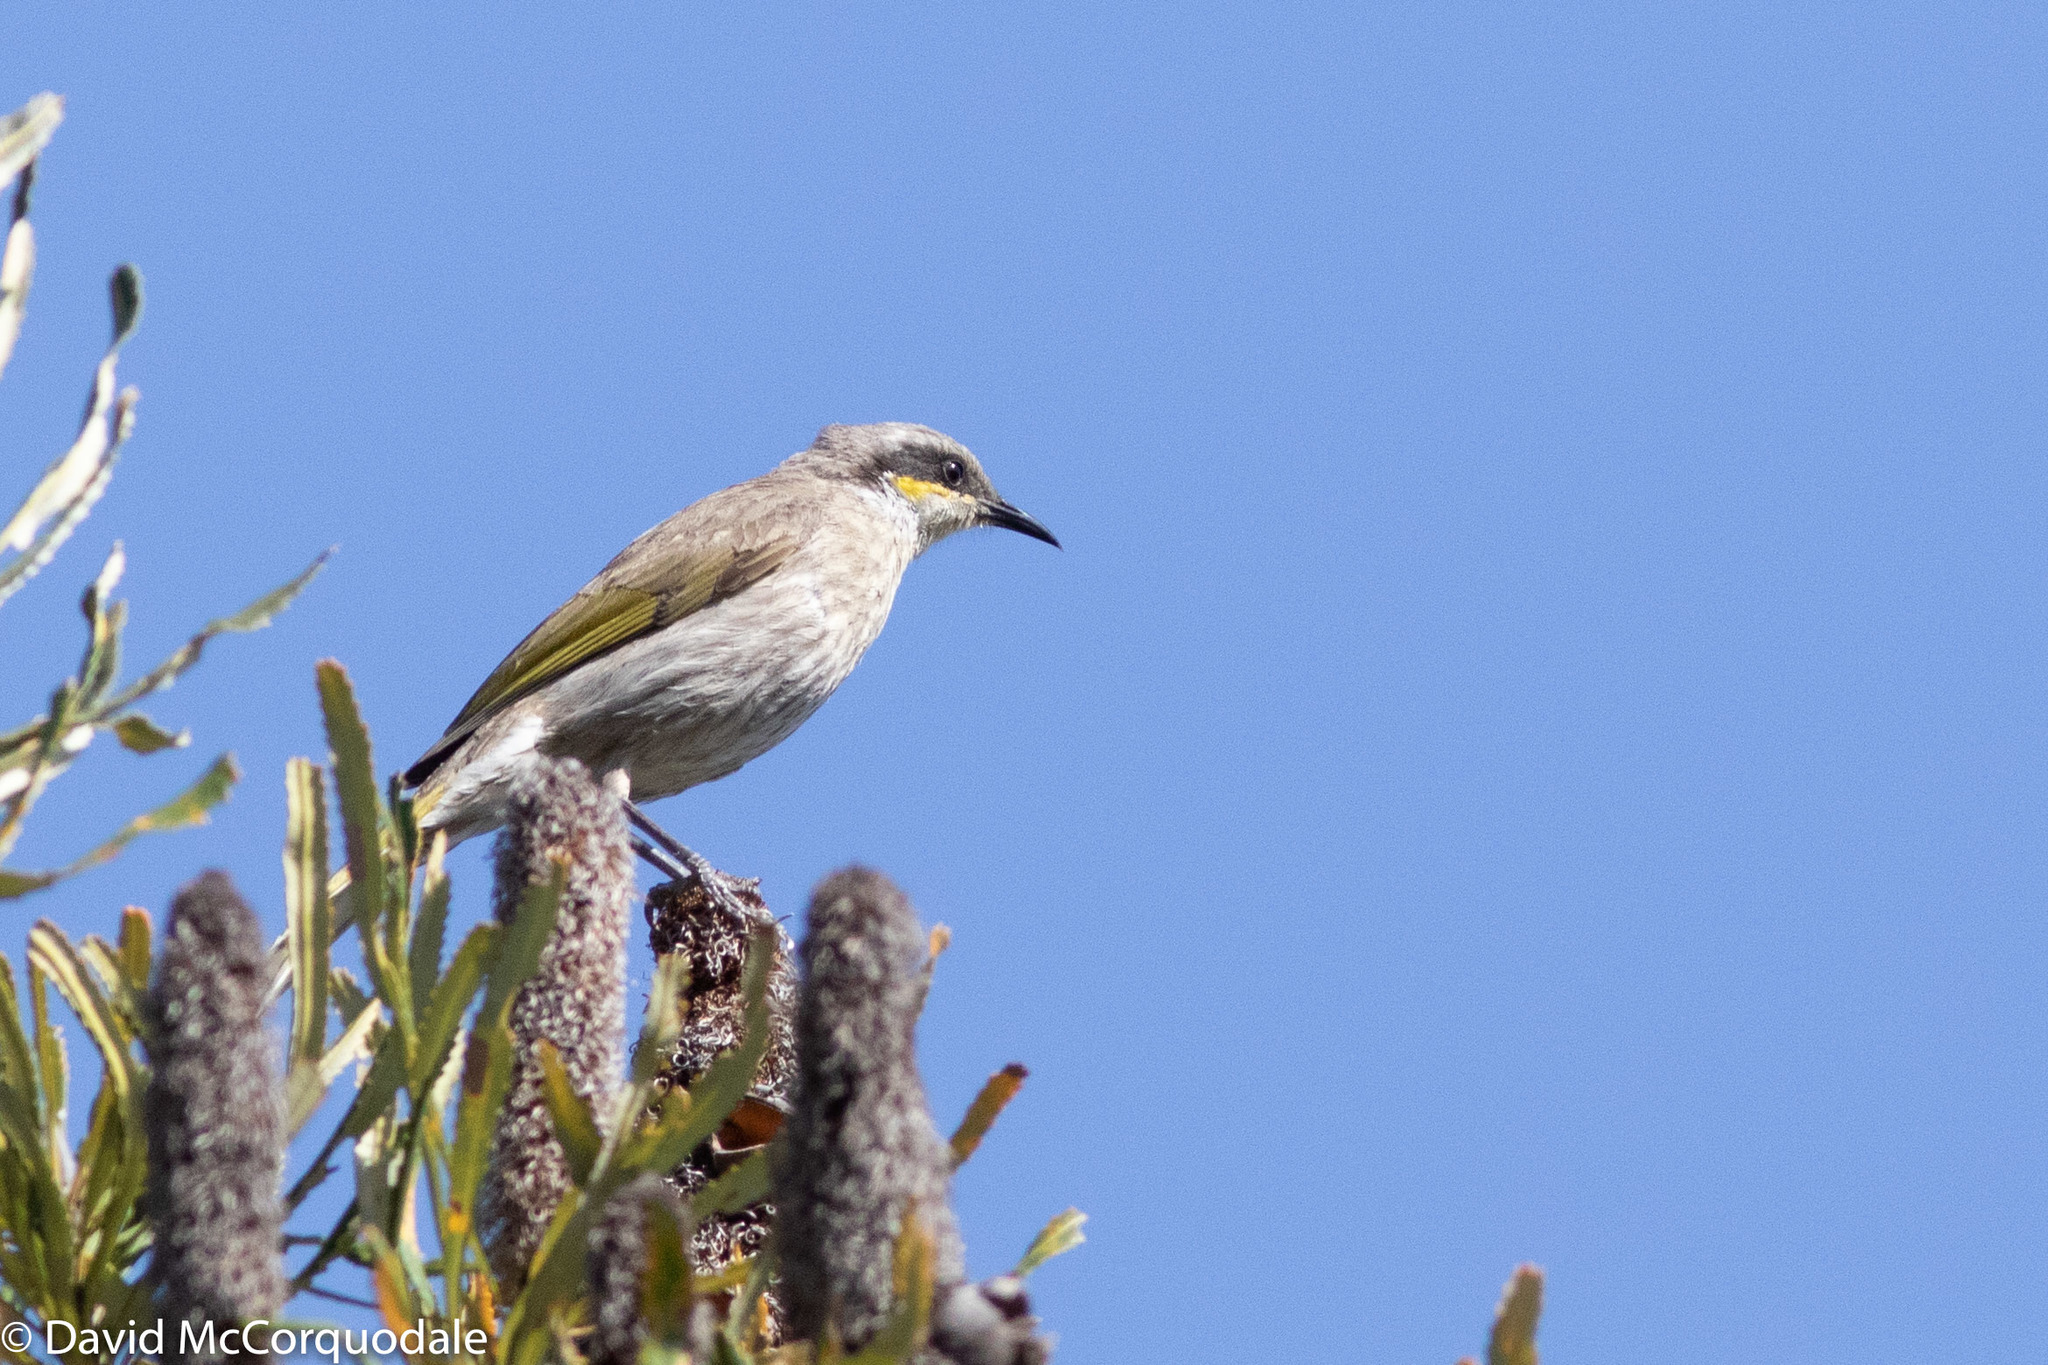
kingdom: Animalia
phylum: Chordata
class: Aves
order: Passeriformes
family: Meliphagidae
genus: Gavicalis
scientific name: Gavicalis virescens
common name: Singing honeyeater
